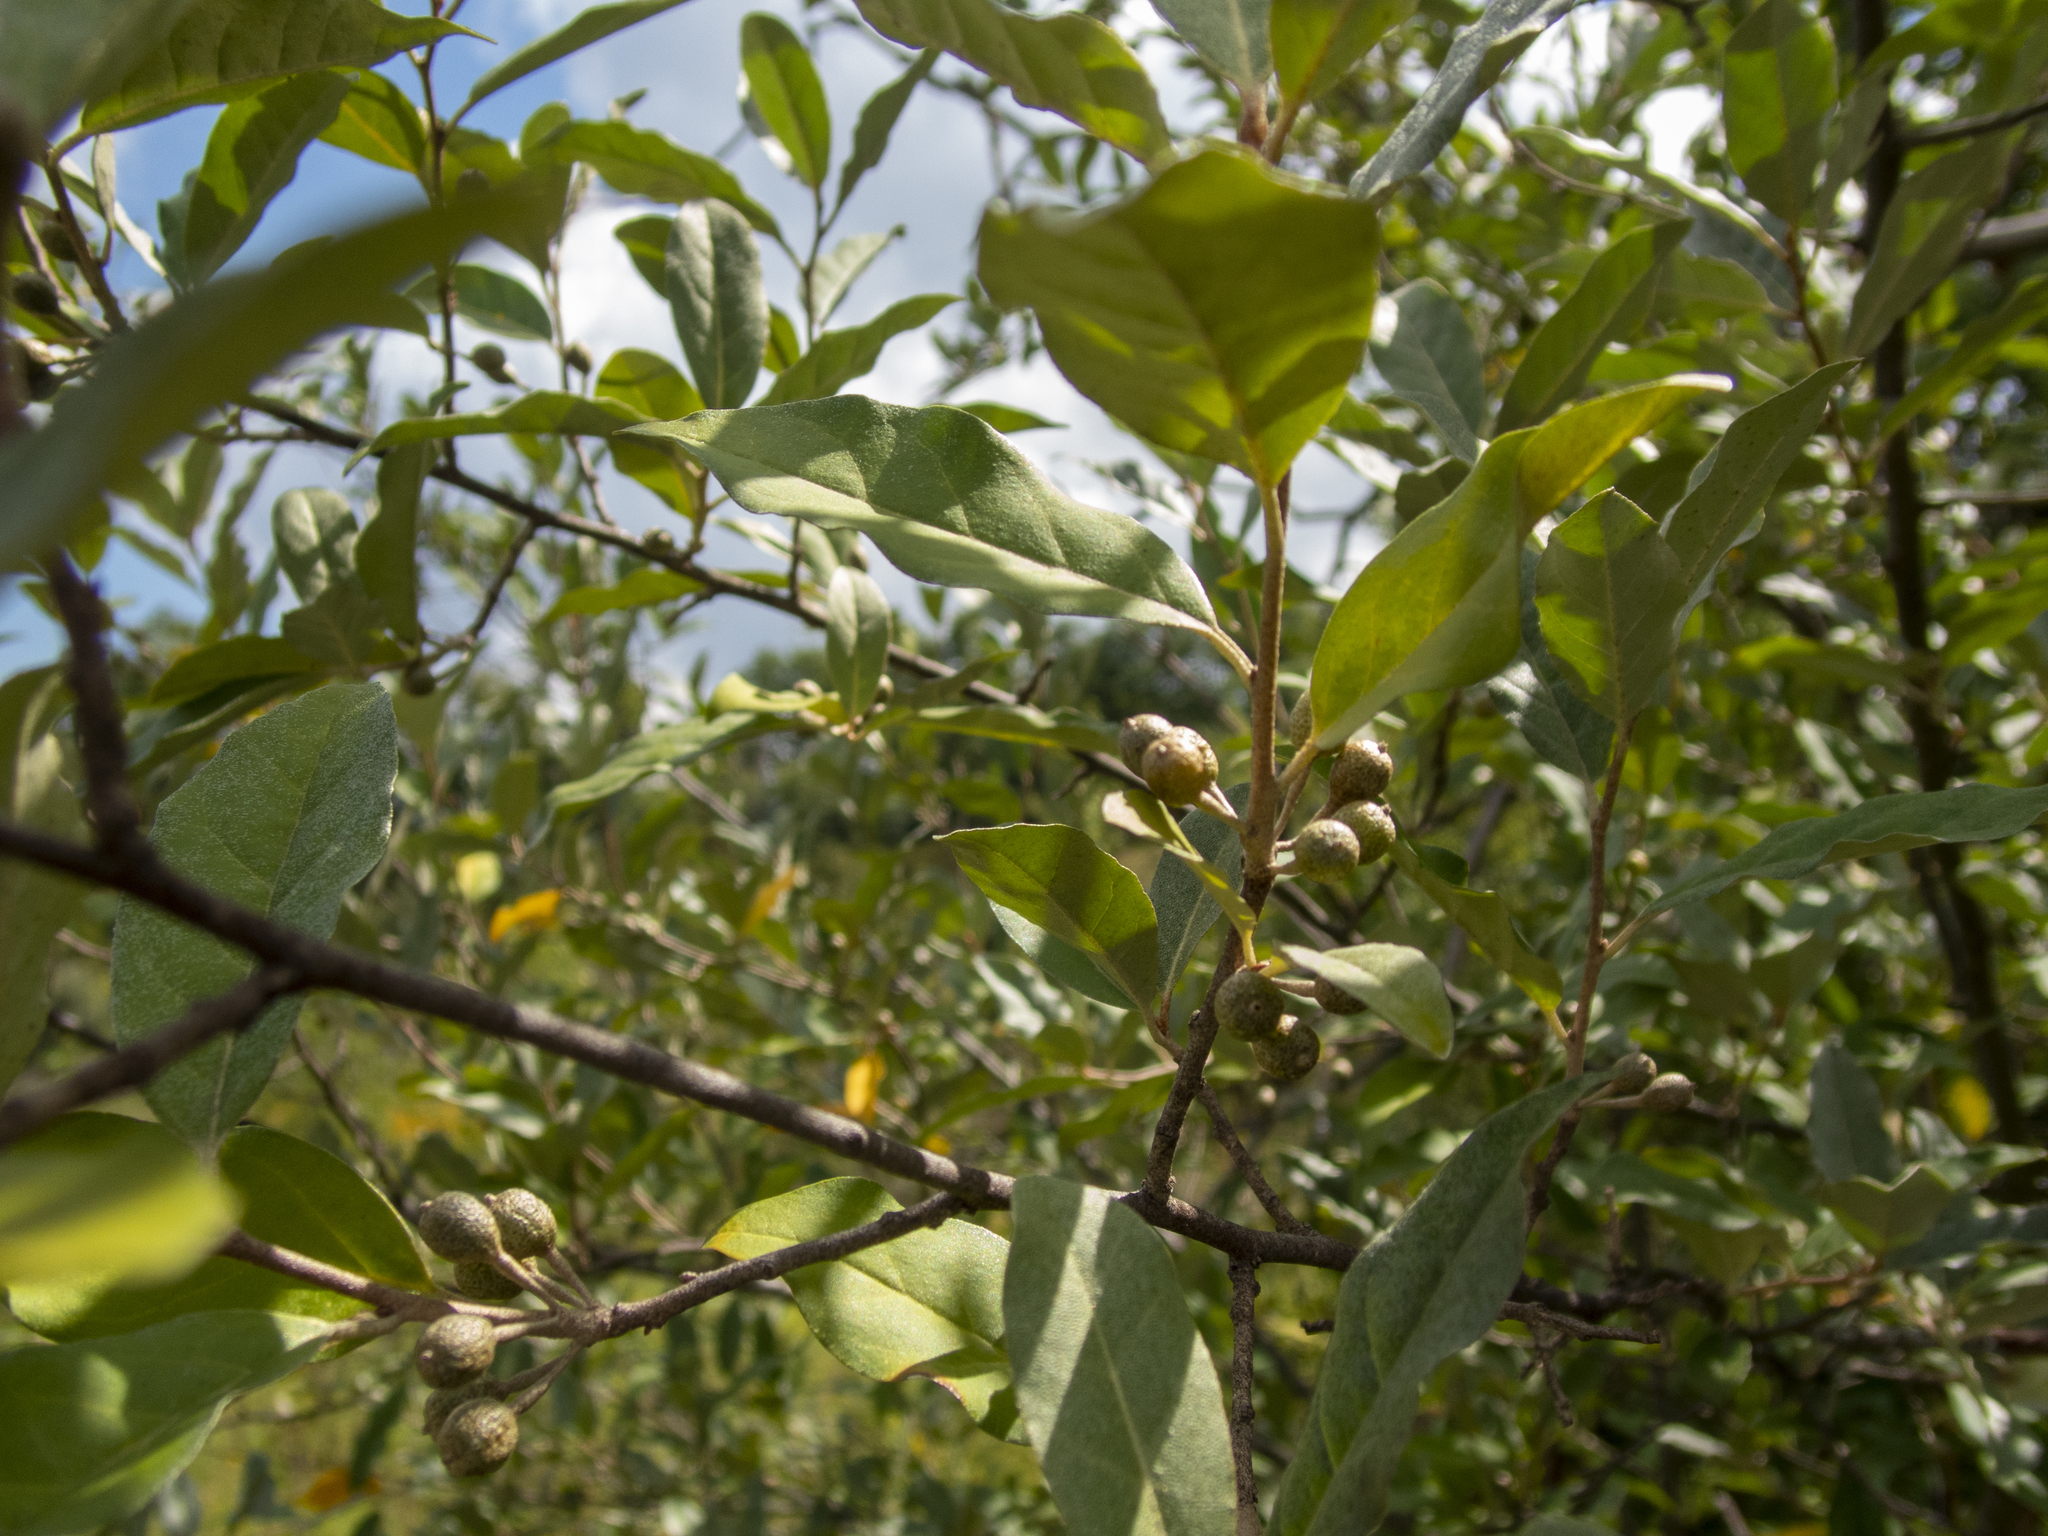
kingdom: Plantae
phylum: Tracheophyta
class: Magnoliopsida
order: Rosales
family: Elaeagnaceae
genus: Elaeagnus
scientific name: Elaeagnus umbellata
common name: Autumn olive
